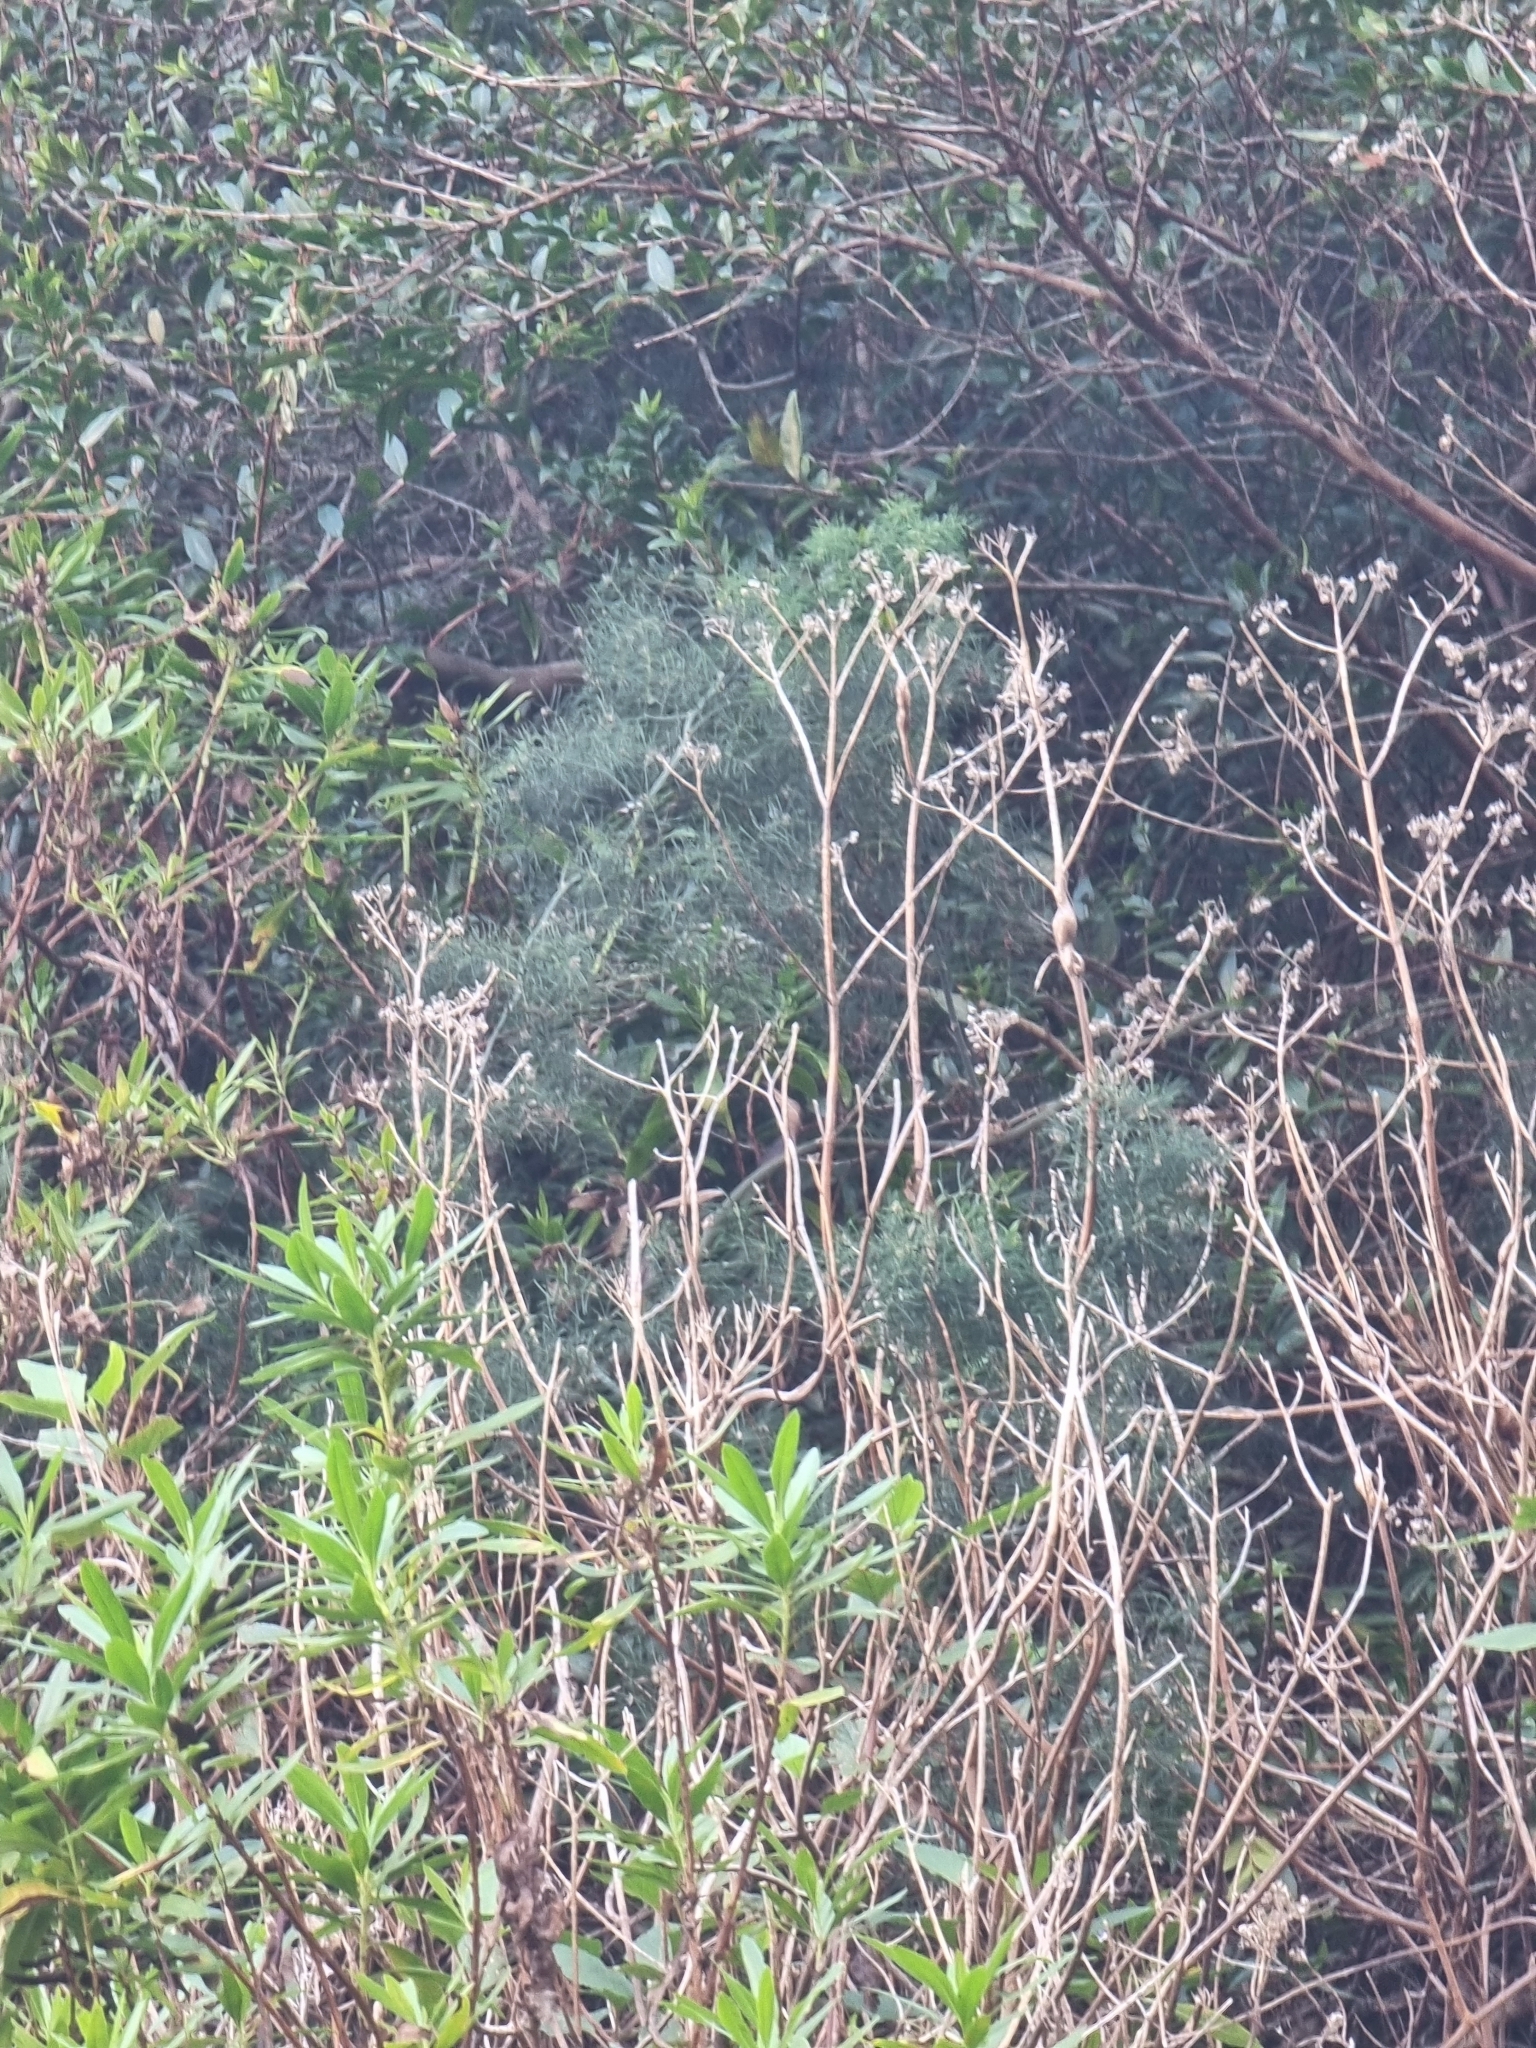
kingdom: Plantae
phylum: Tracheophyta
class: Liliopsida
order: Asparagales
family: Asparagaceae
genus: Asparagus
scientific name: Asparagus umbellatus
